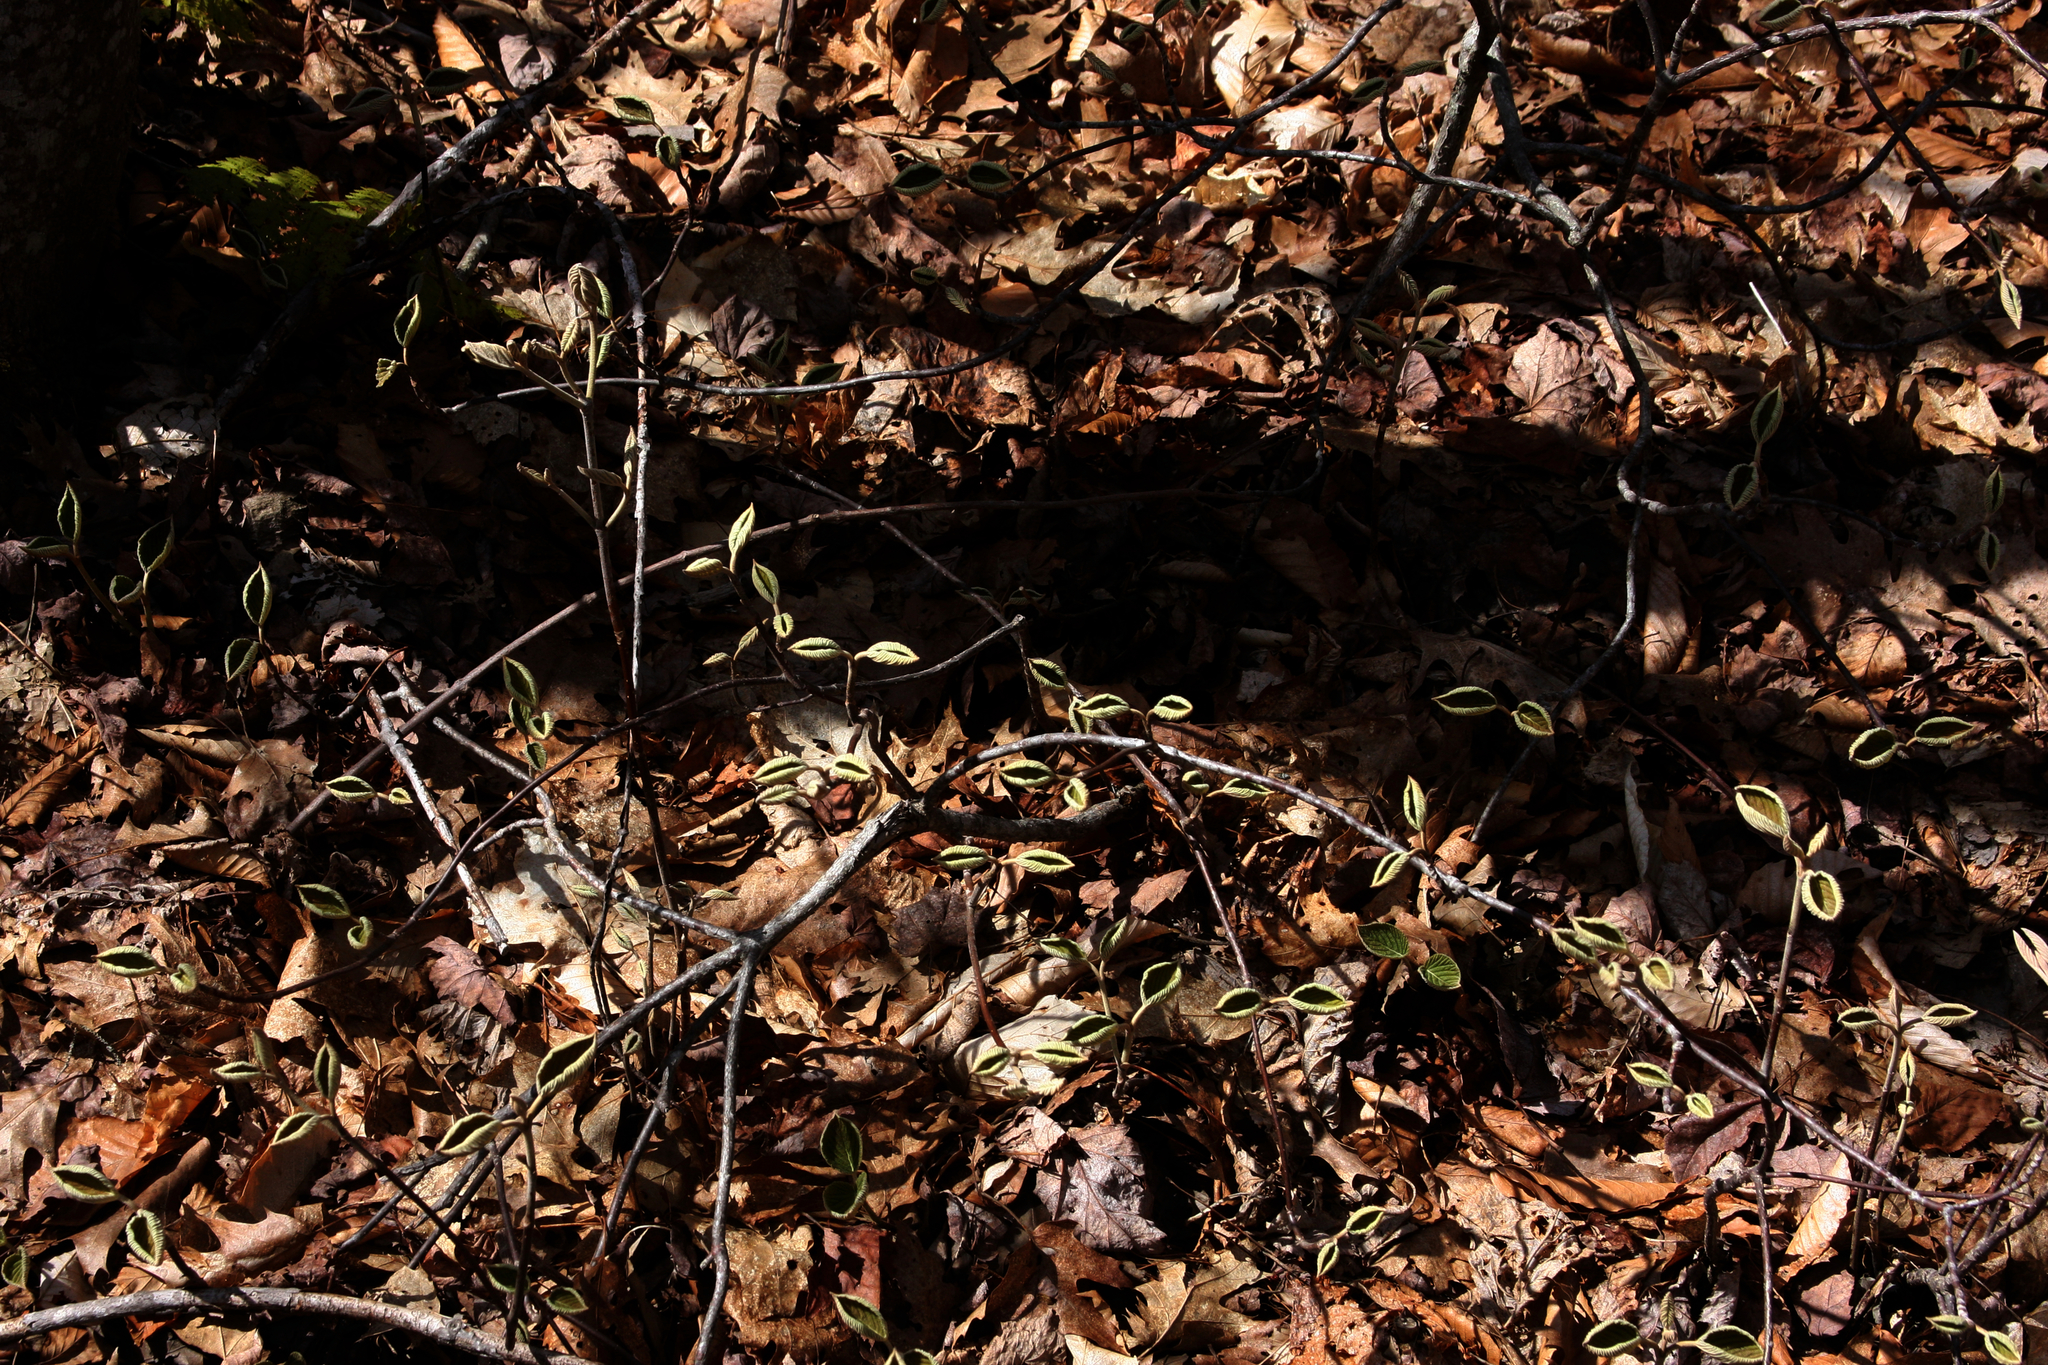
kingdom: Plantae
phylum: Tracheophyta
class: Magnoliopsida
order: Dipsacales
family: Viburnaceae
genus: Viburnum
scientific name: Viburnum lantanoides
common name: Hobblebush
